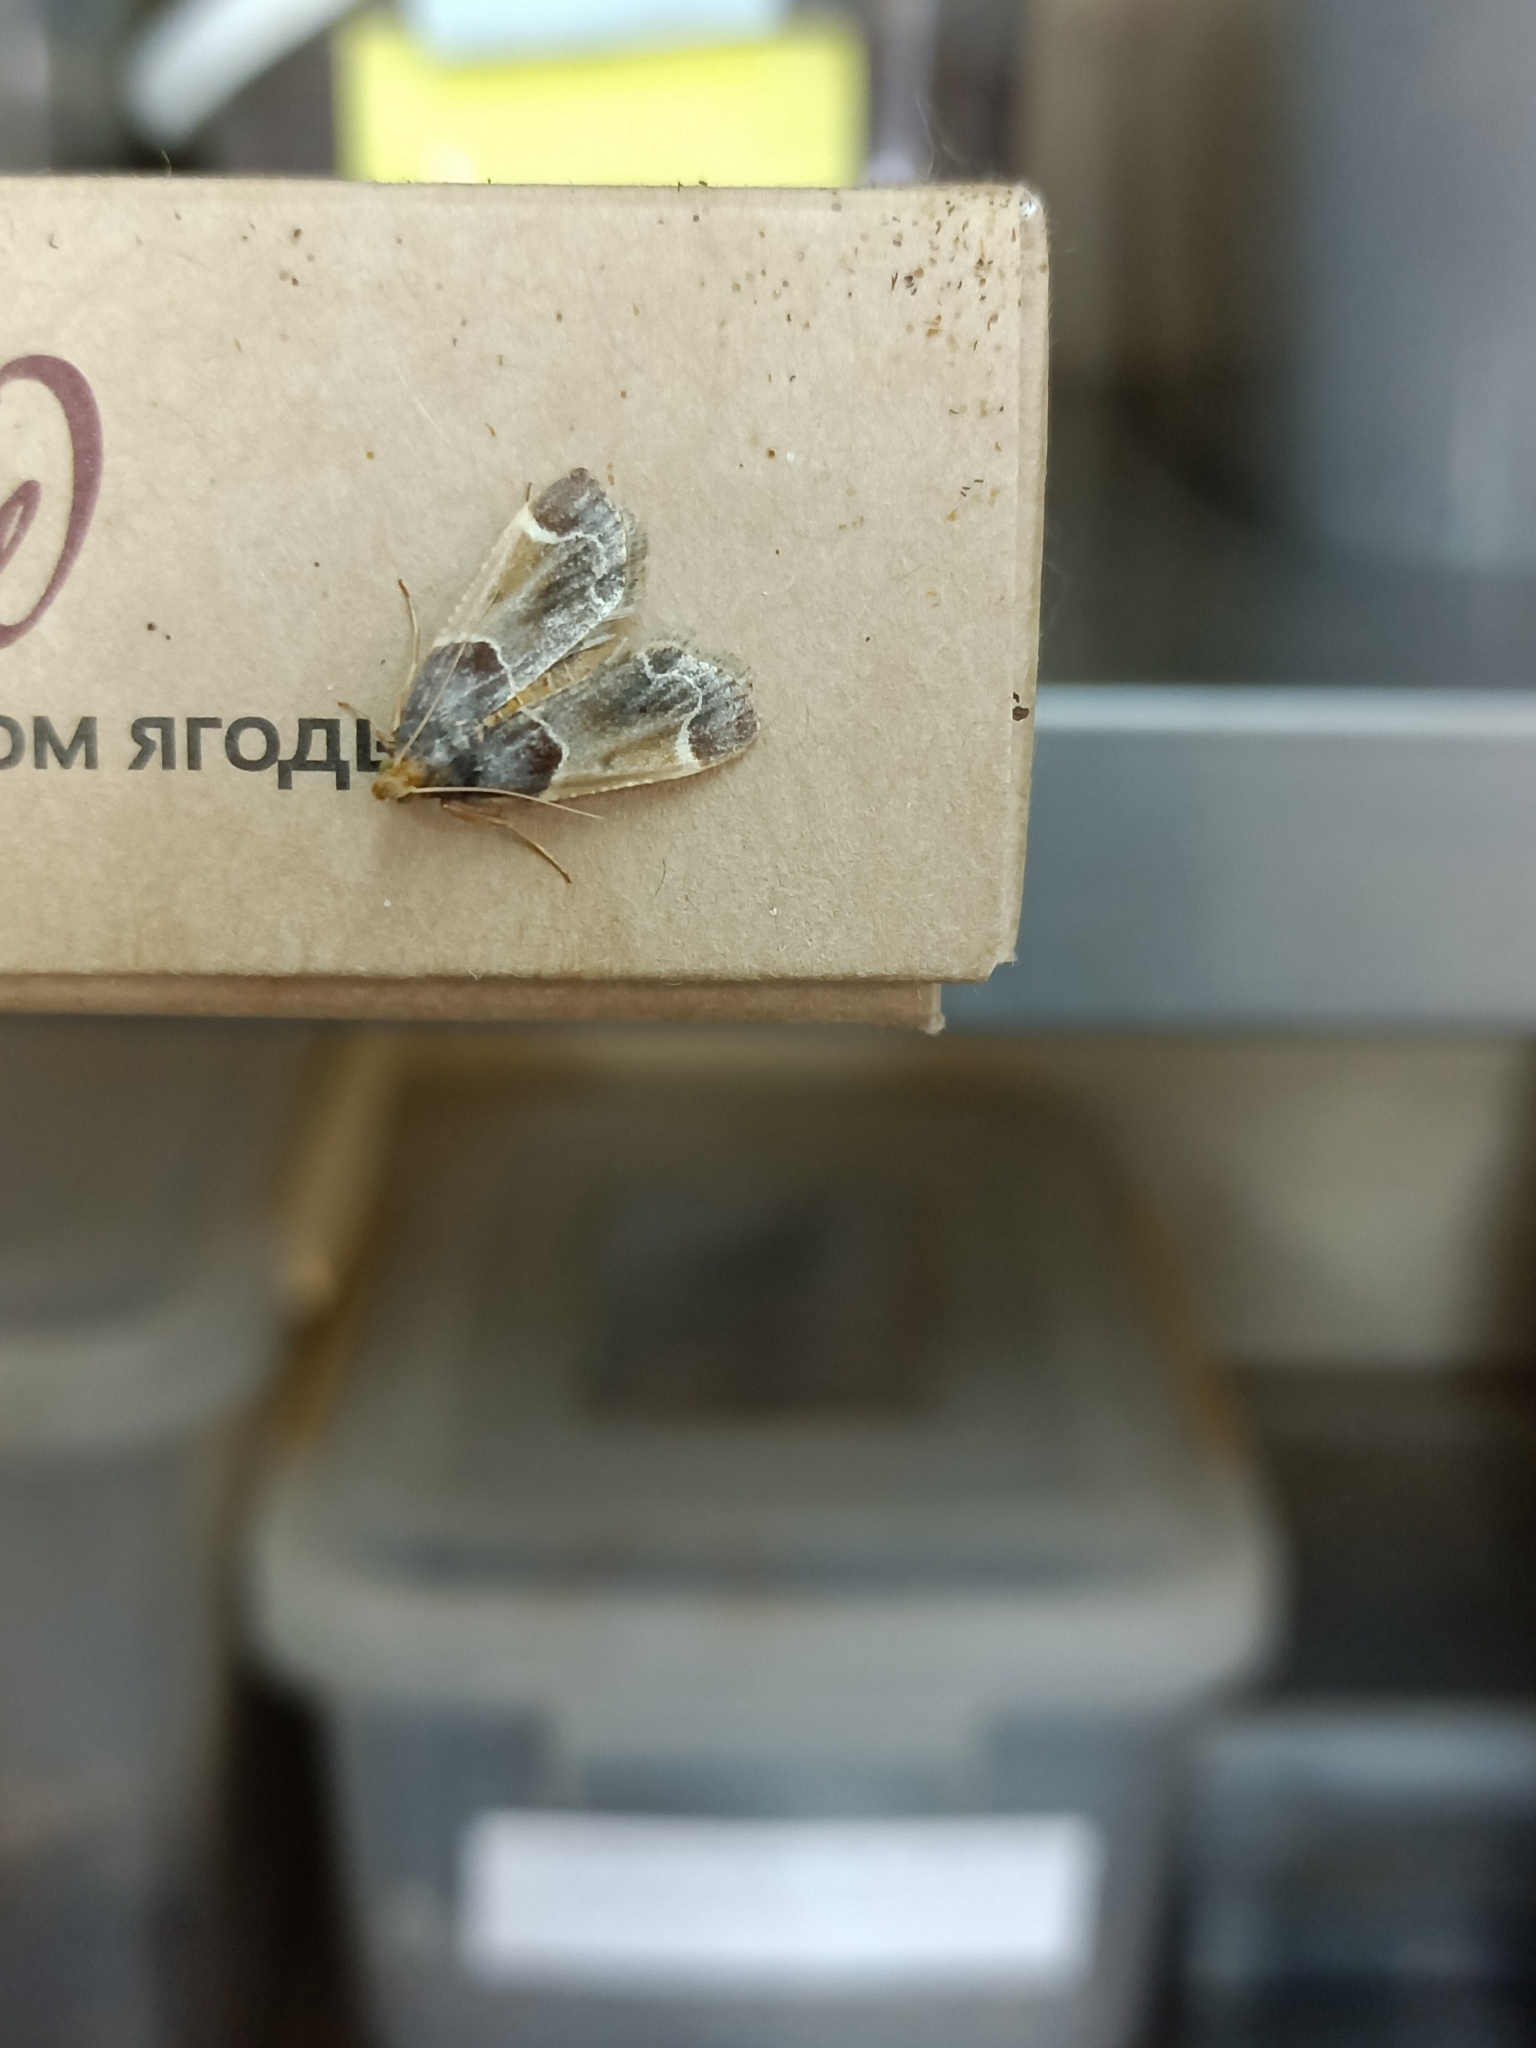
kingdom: Animalia
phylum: Arthropoda
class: Insecta
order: Lepidoptera
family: Pyralidae
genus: Pyralis
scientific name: Pyralis farinalis
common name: Meal moth
